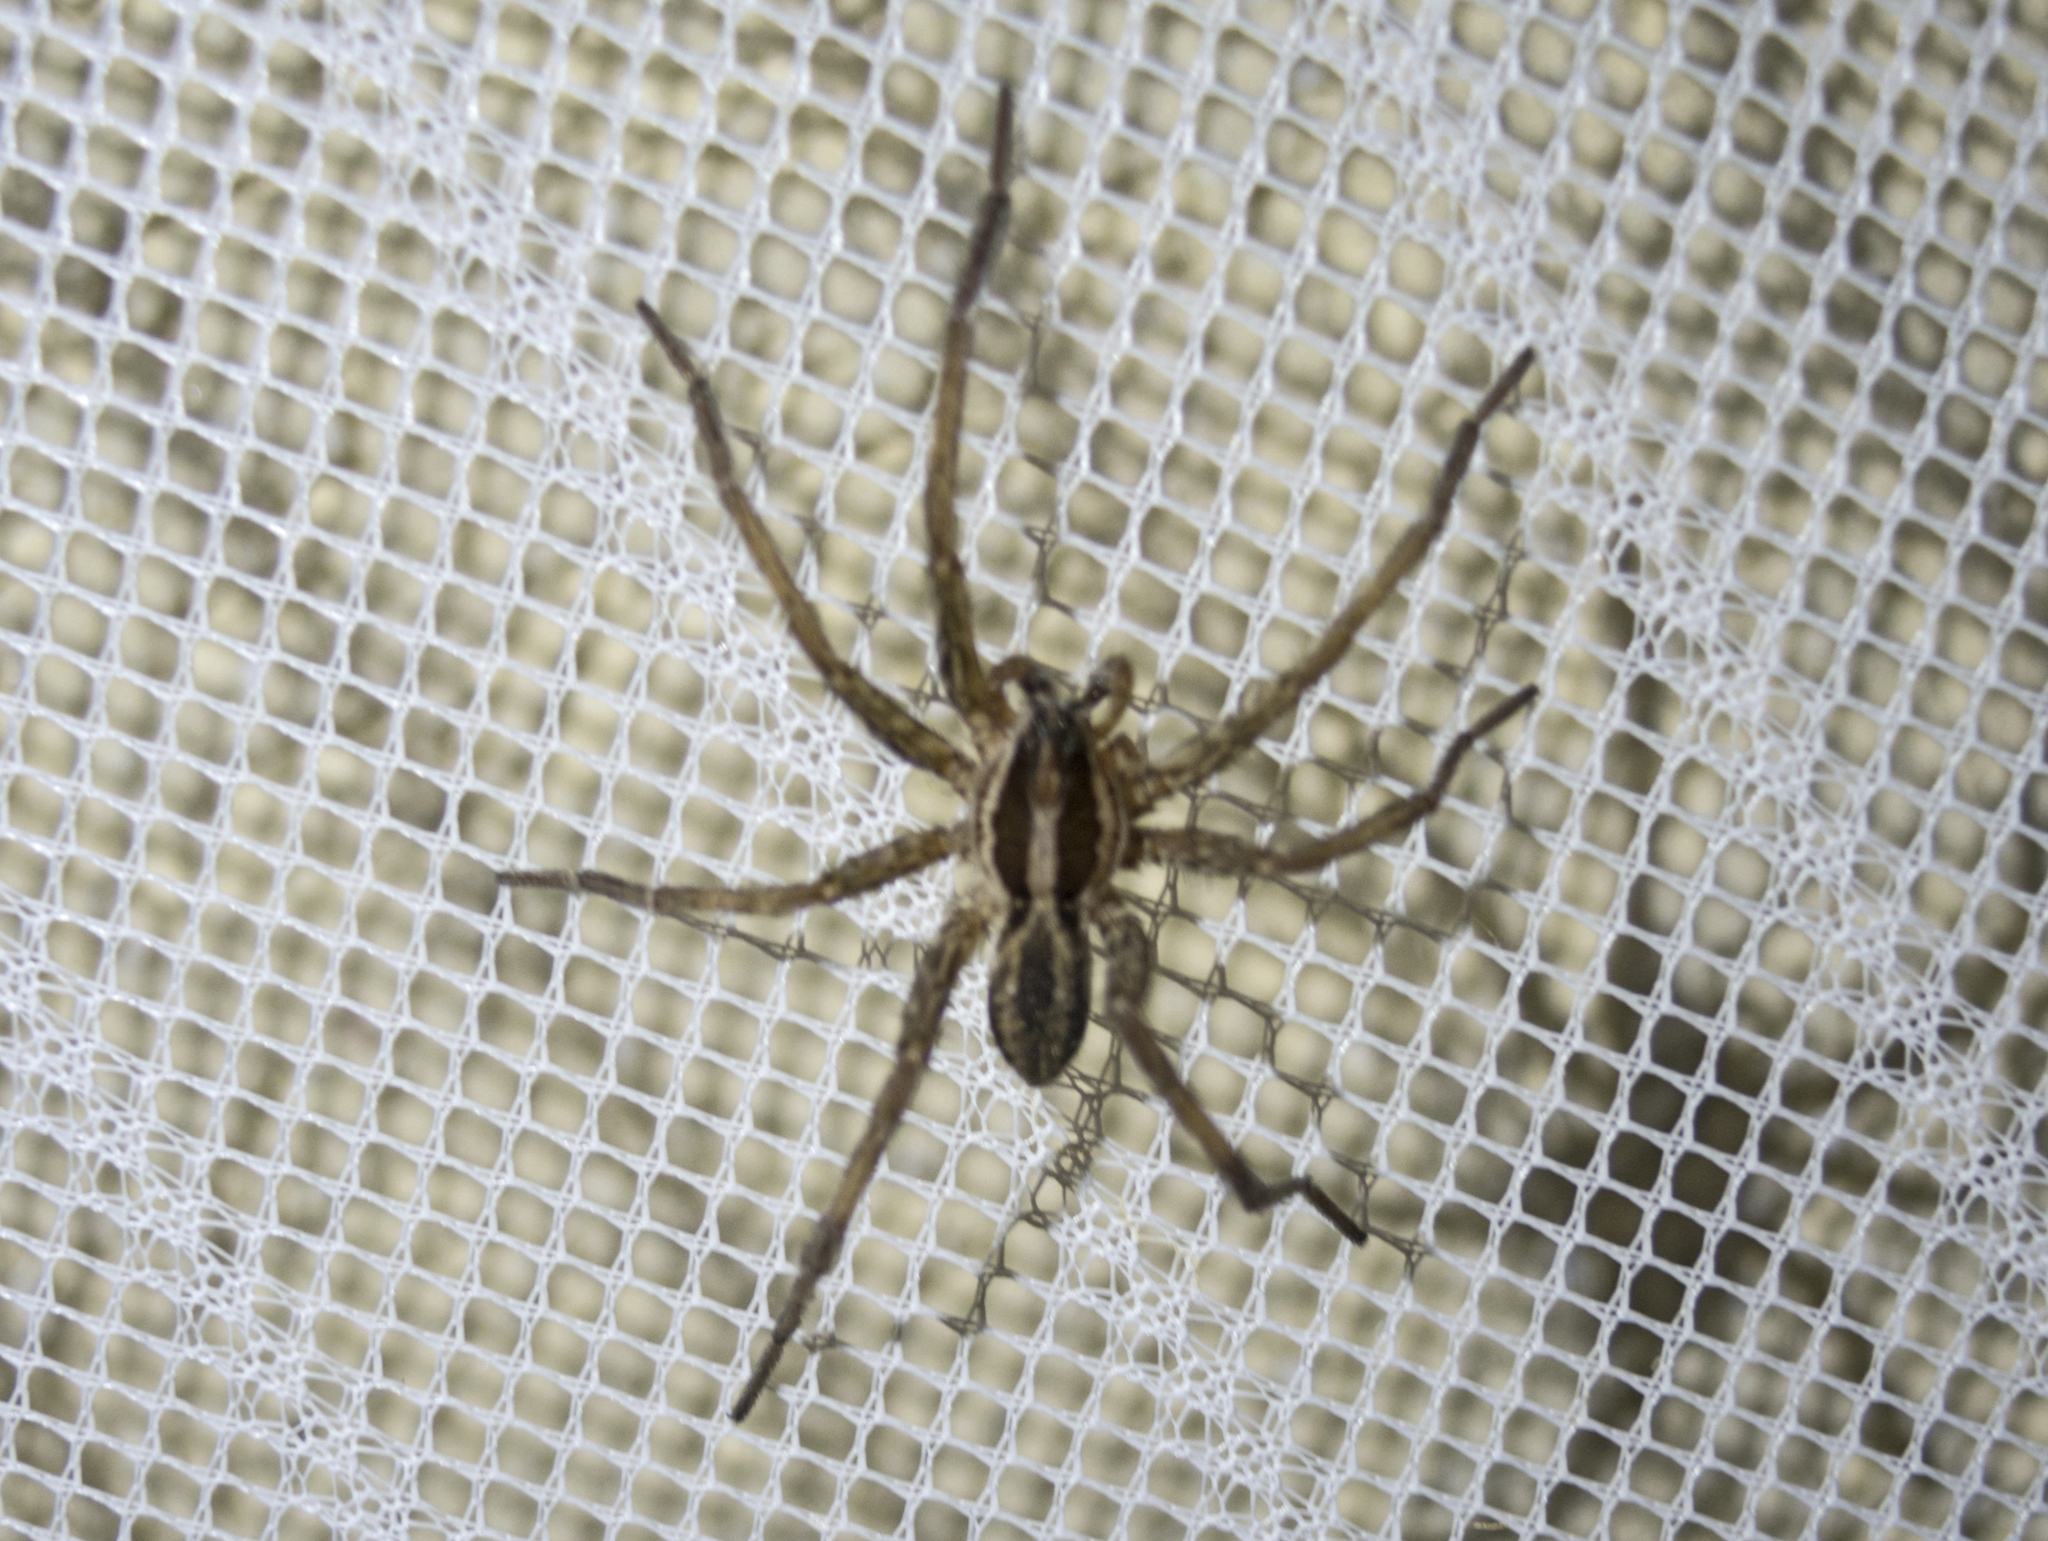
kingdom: Animalia
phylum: Arthropoda
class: Arachnida
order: Araneae
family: Lycosidae
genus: Hogna
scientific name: Hogna radiata
